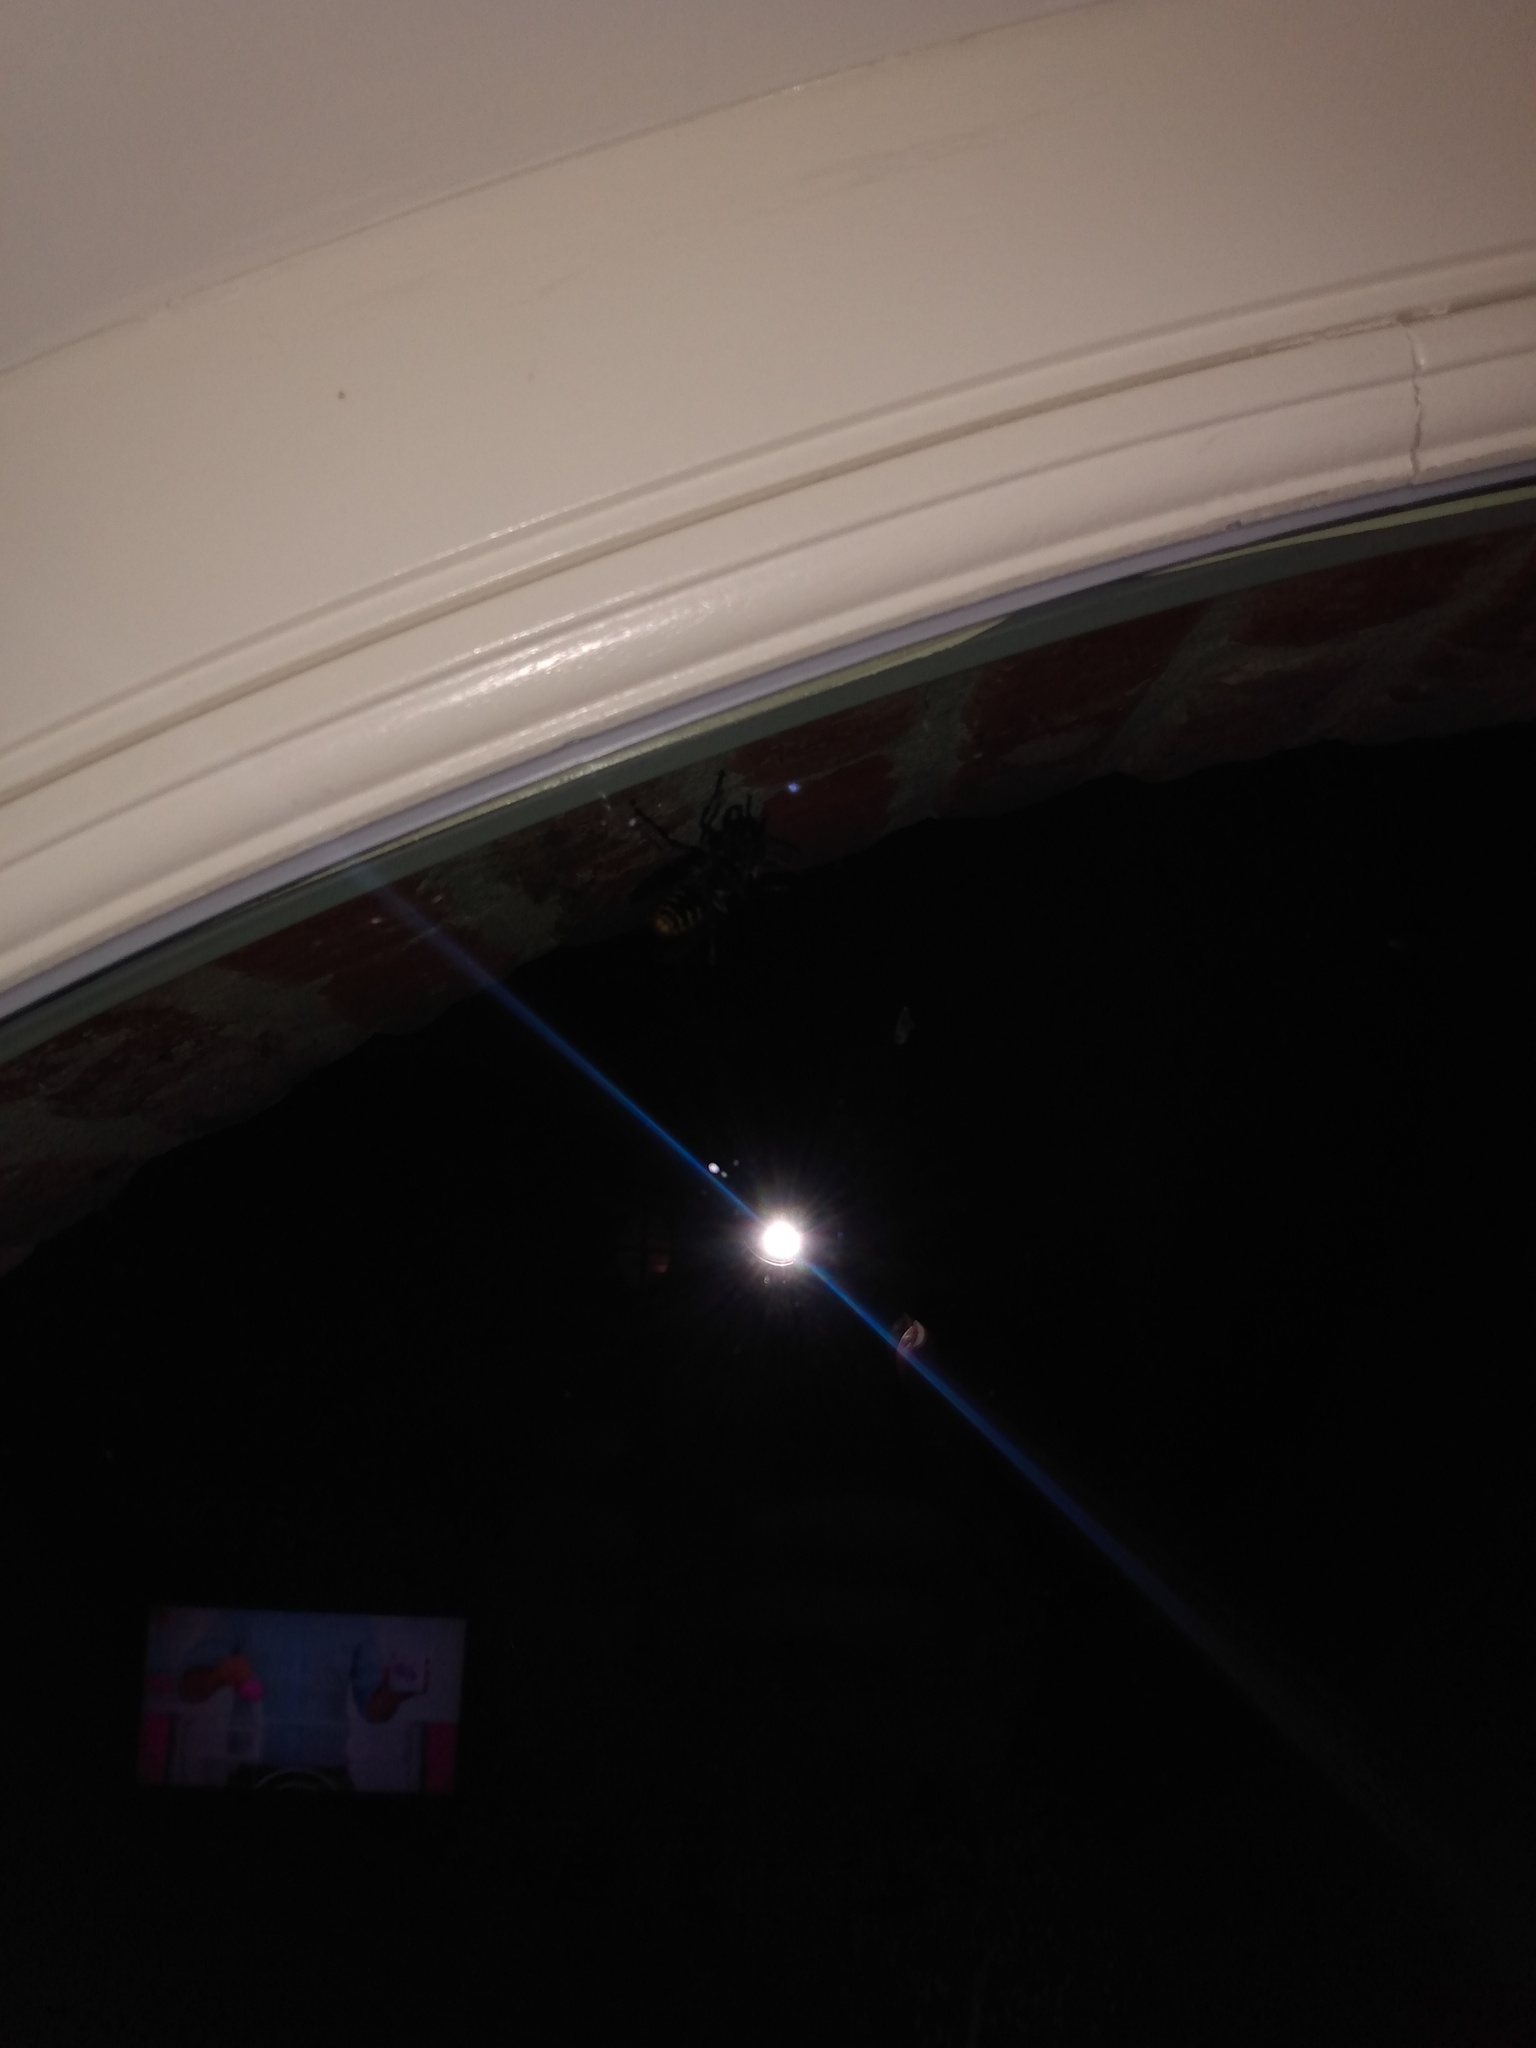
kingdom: Animalia
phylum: Arthropoda
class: Insecta
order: Hymenoptera
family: Vespidae
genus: Vespa
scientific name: Vespa crabro
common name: Hornet
